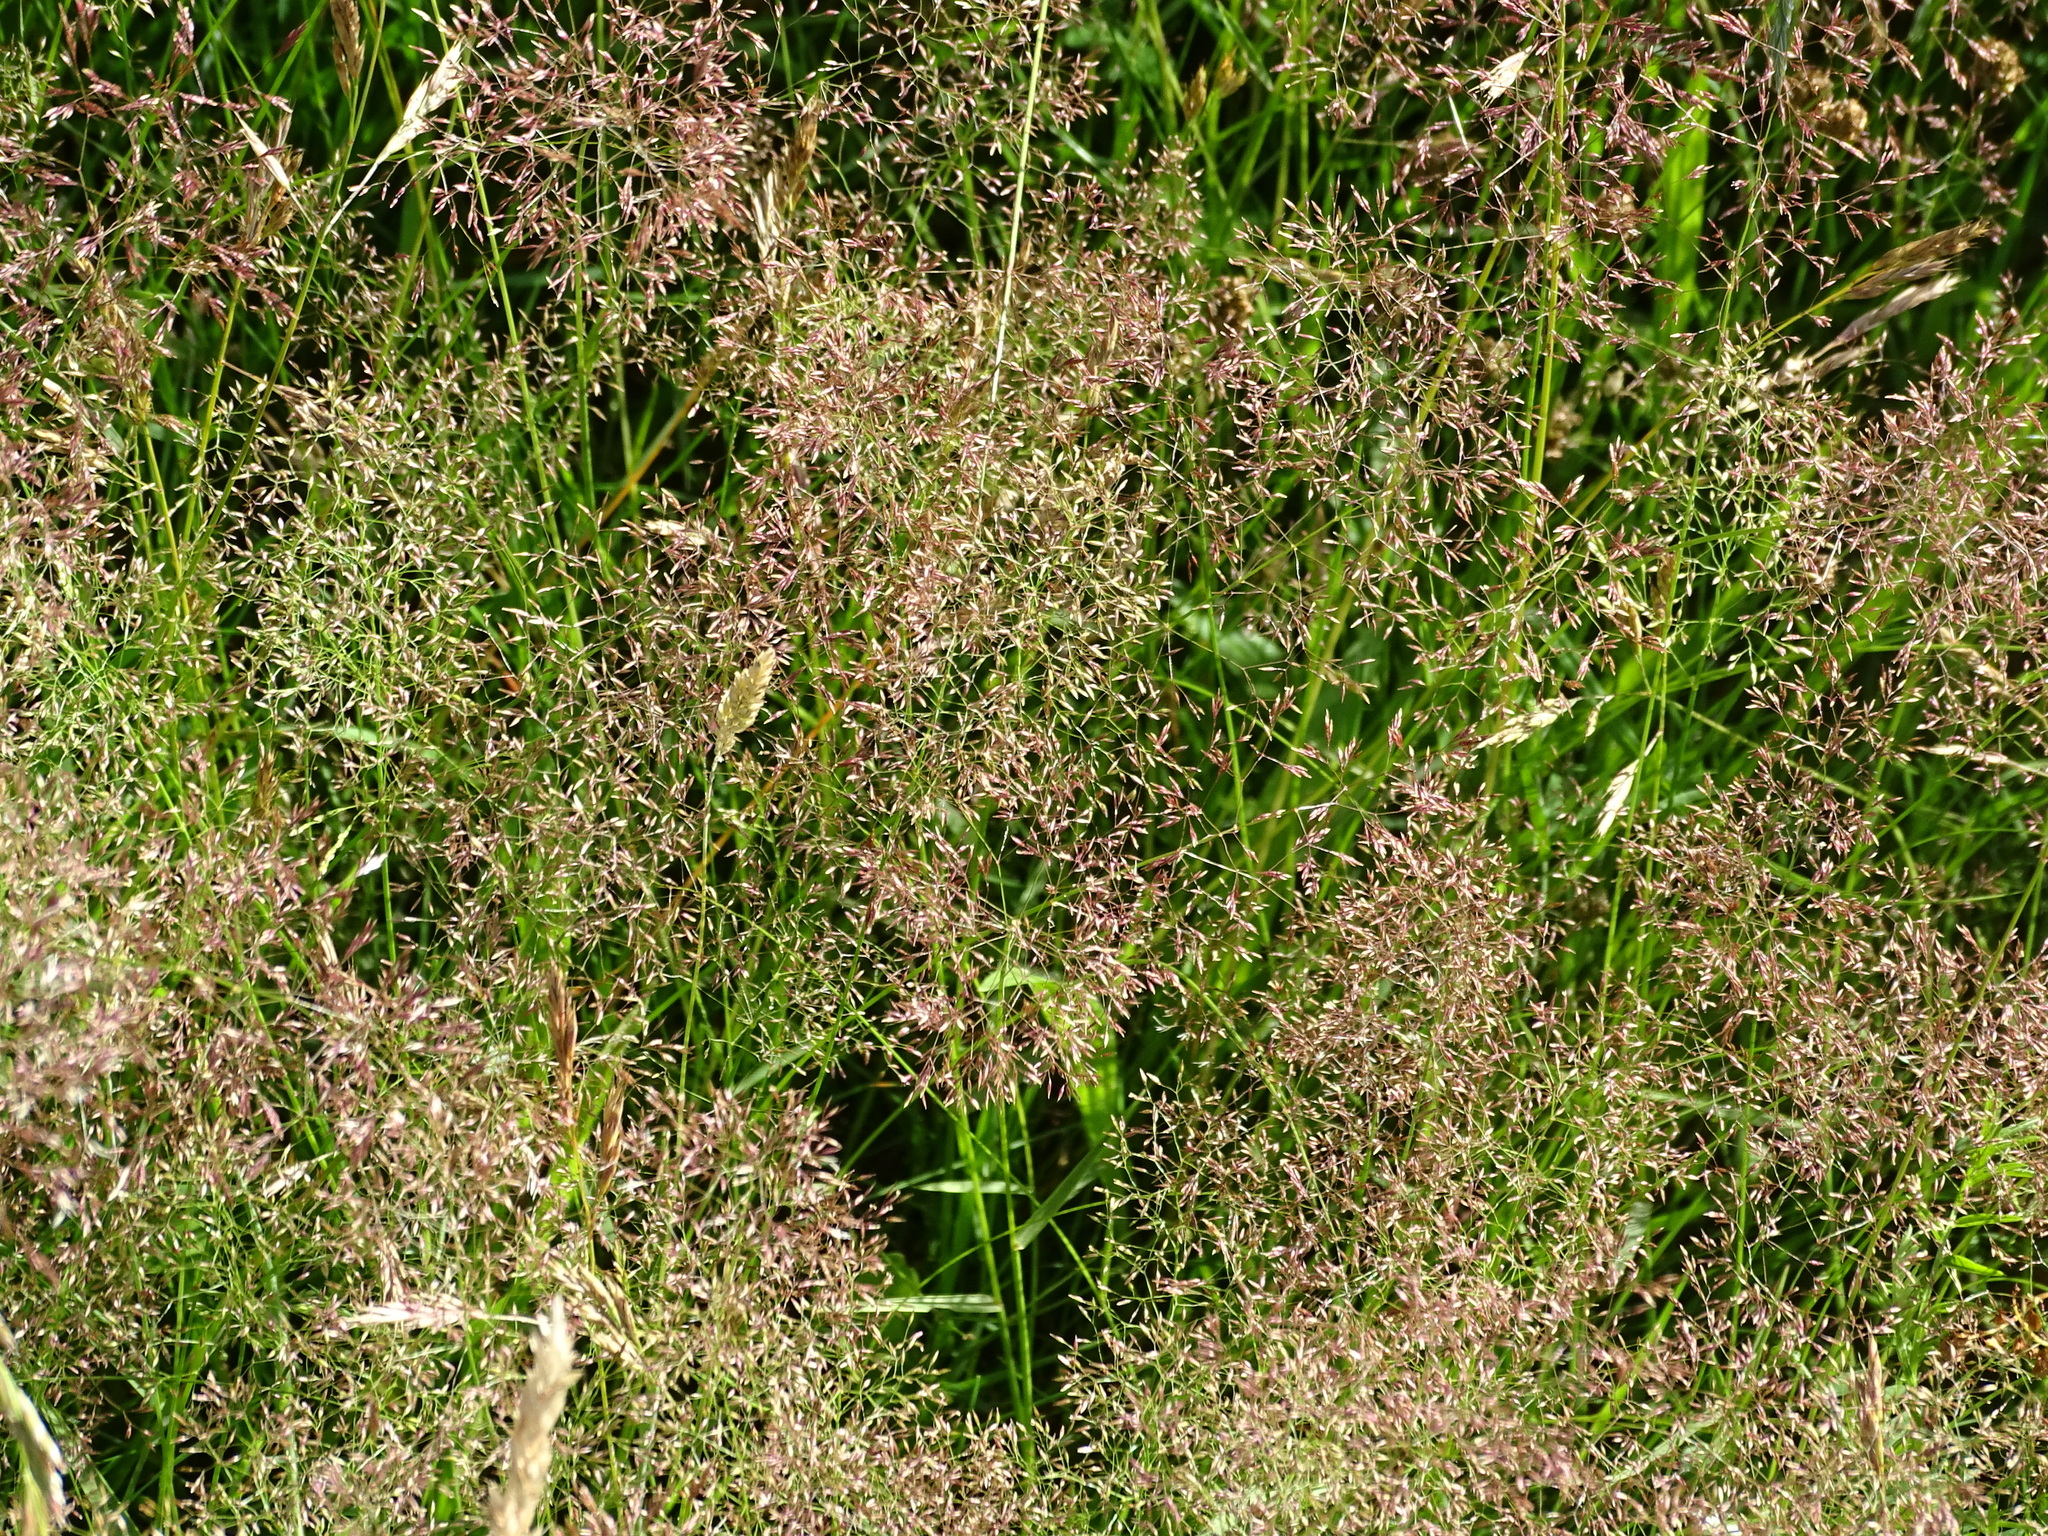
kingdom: Plantae
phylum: Tracheophyta
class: Liliopsida
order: Poales
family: Poaceae
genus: Agrostis
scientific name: Agrostis capillaris
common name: Colonial bentgrass
